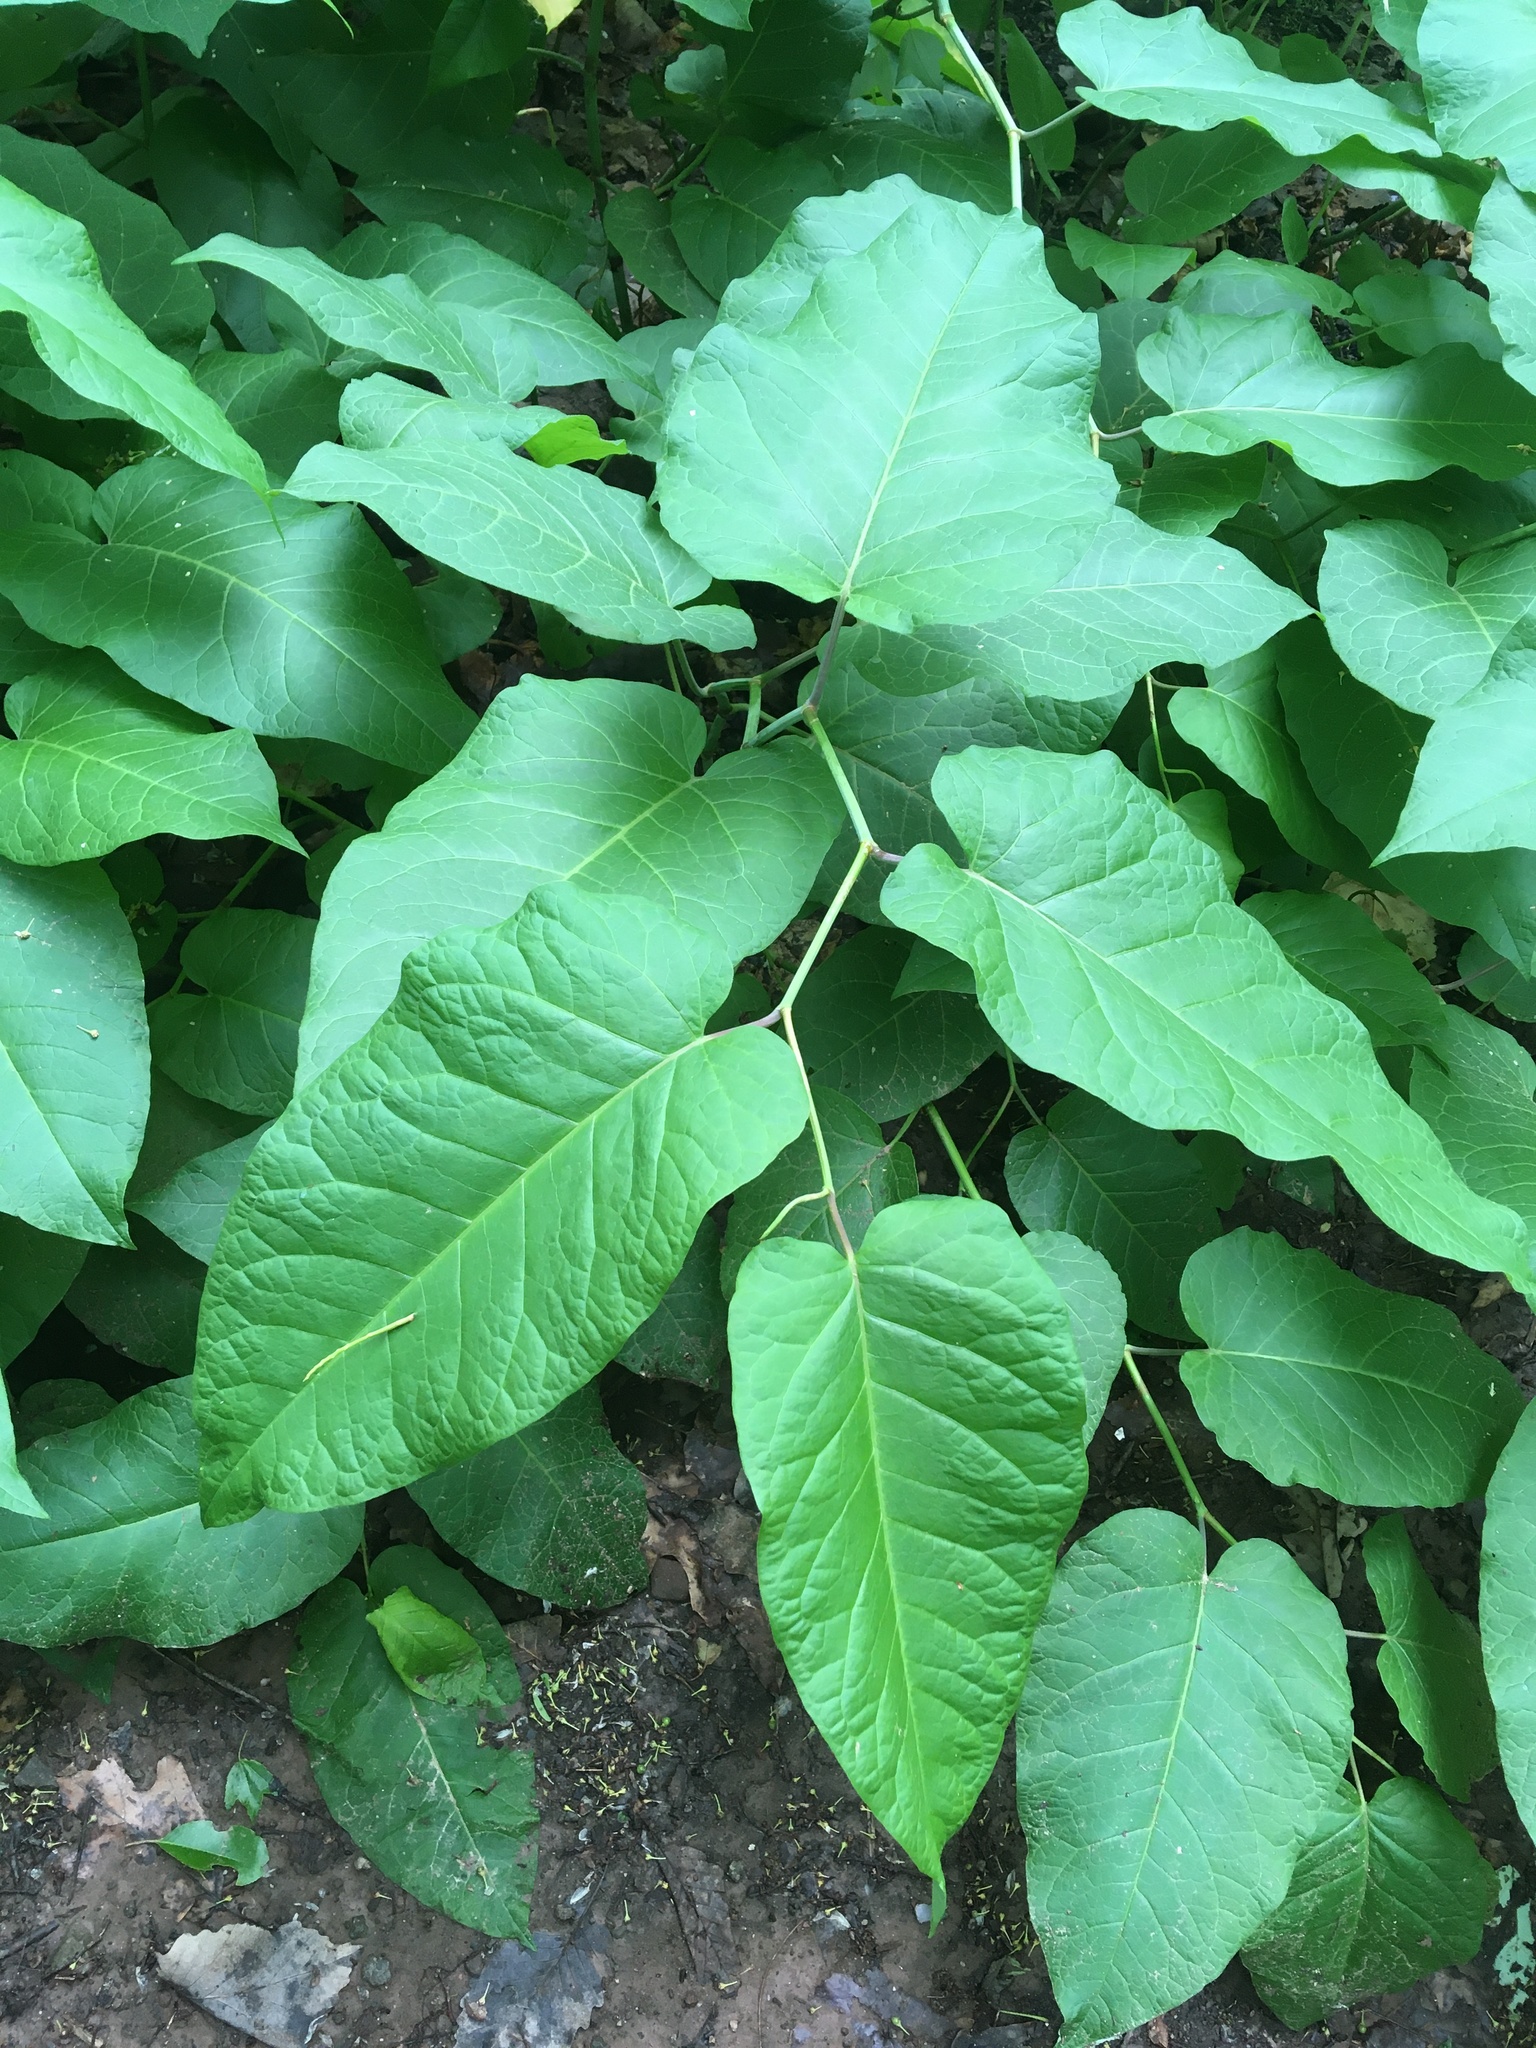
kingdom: Plantae
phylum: Tracheophyta
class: Magnoliopsida
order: Caryophyllales
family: Polygonaceae
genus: Reynoutria
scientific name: Reynoutria sachalinensis
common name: Giant knotweed
